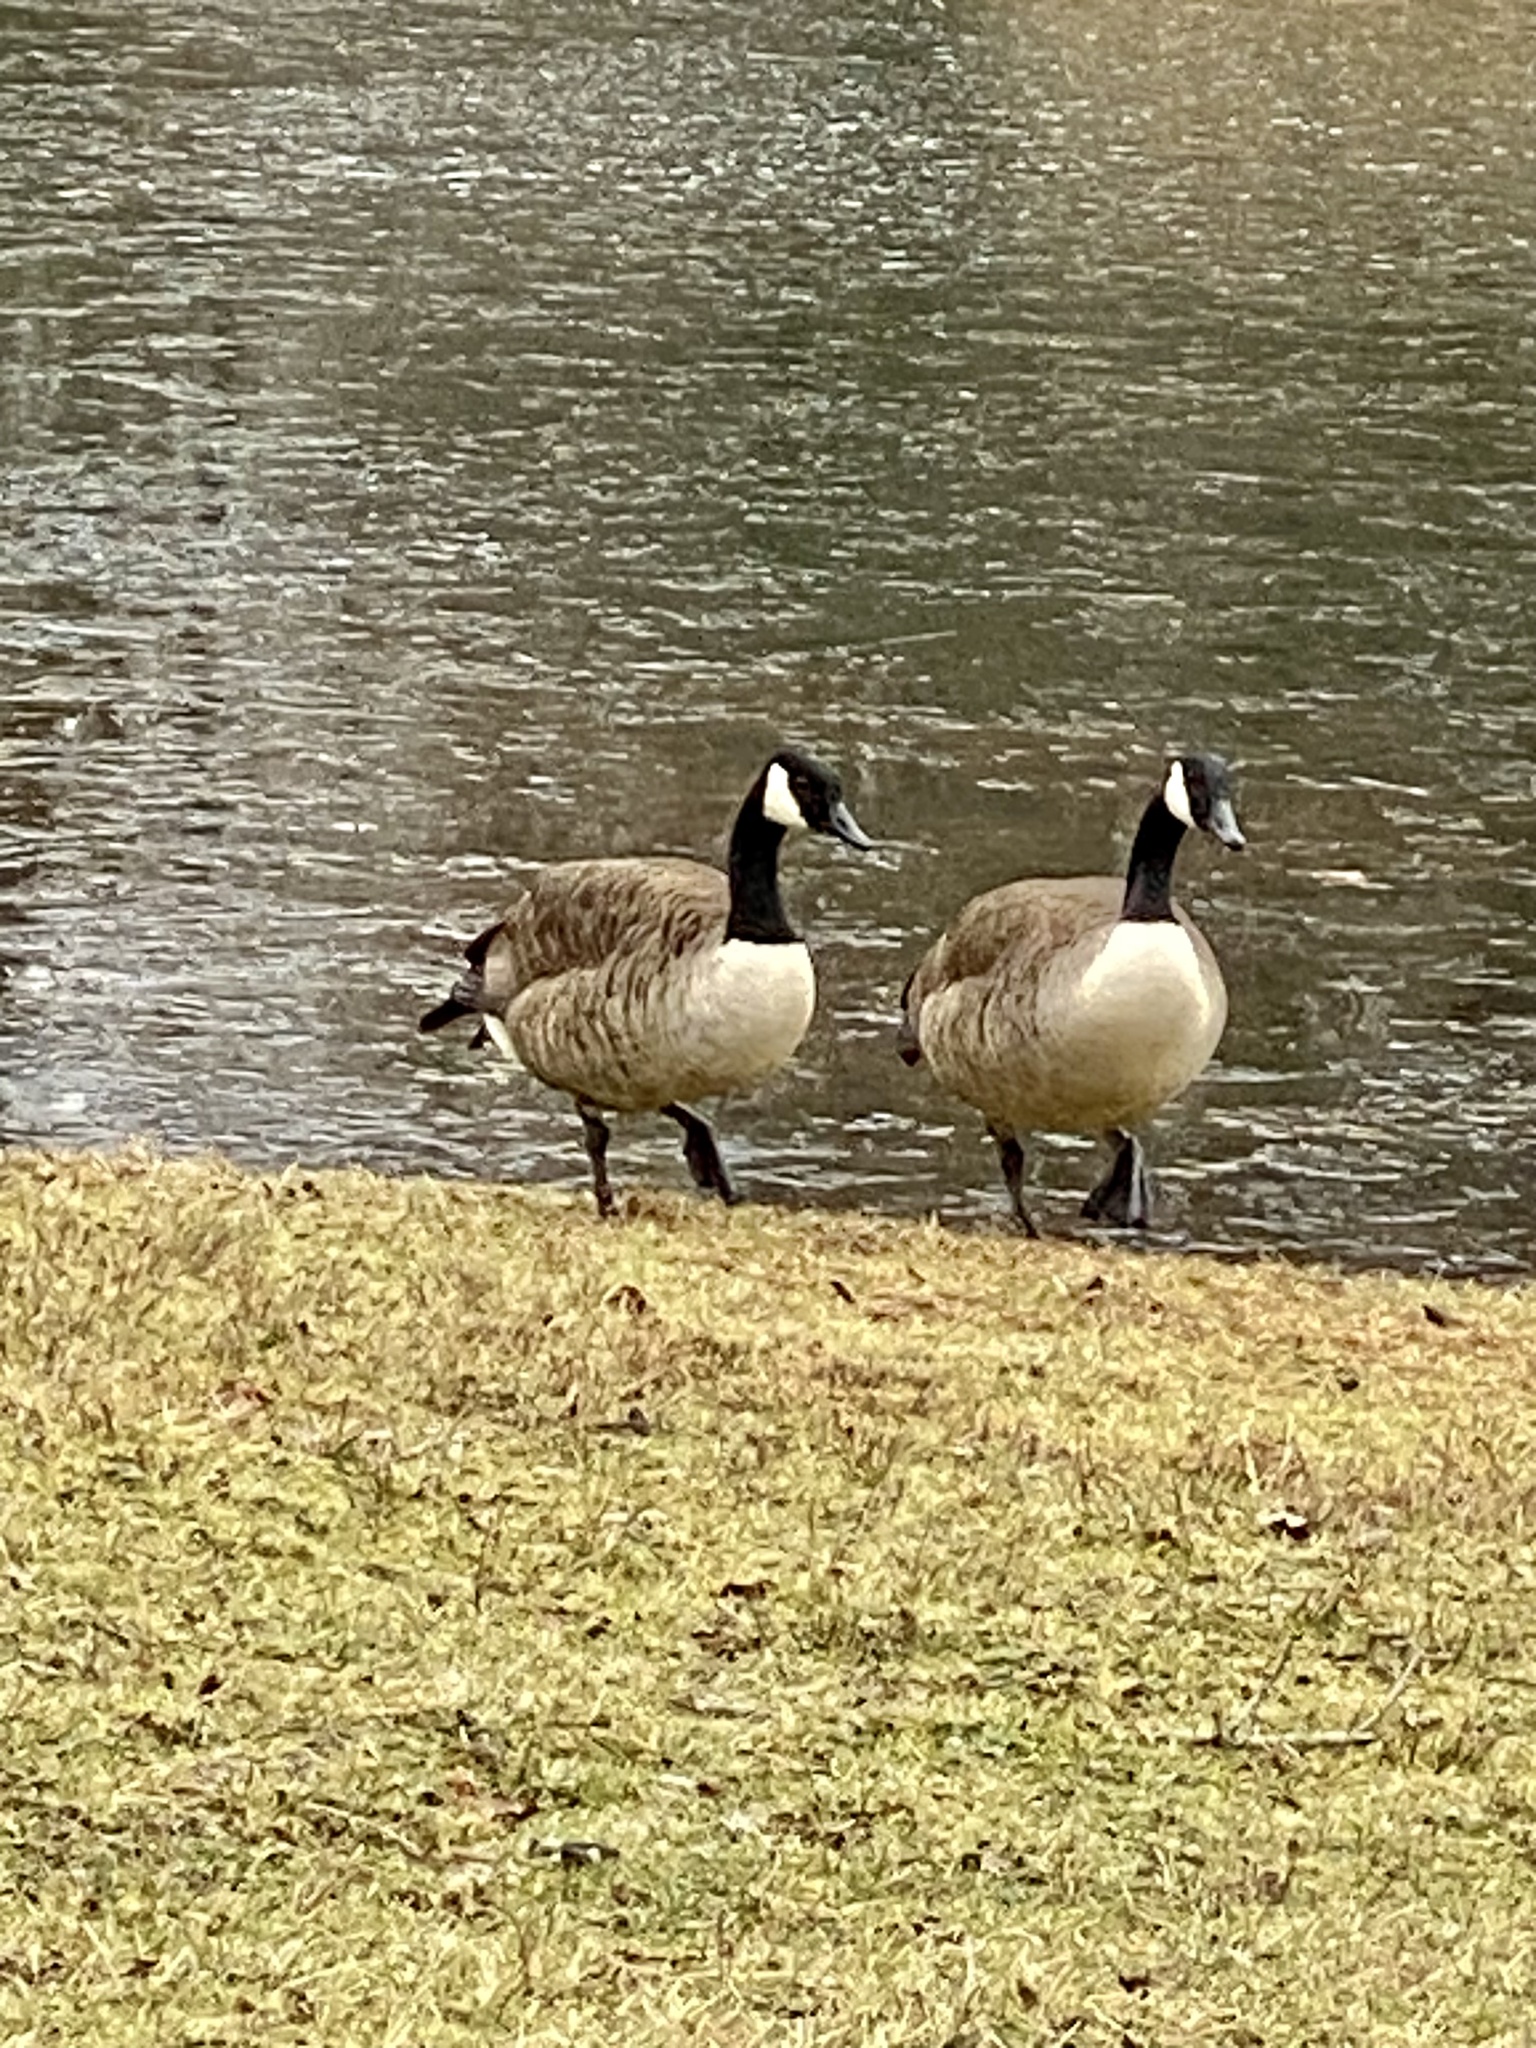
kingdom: Animalia
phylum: Chordata
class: Aves
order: Anseriformes
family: Anatidae
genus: Branta
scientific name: Branta canadensis
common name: Canada goose
